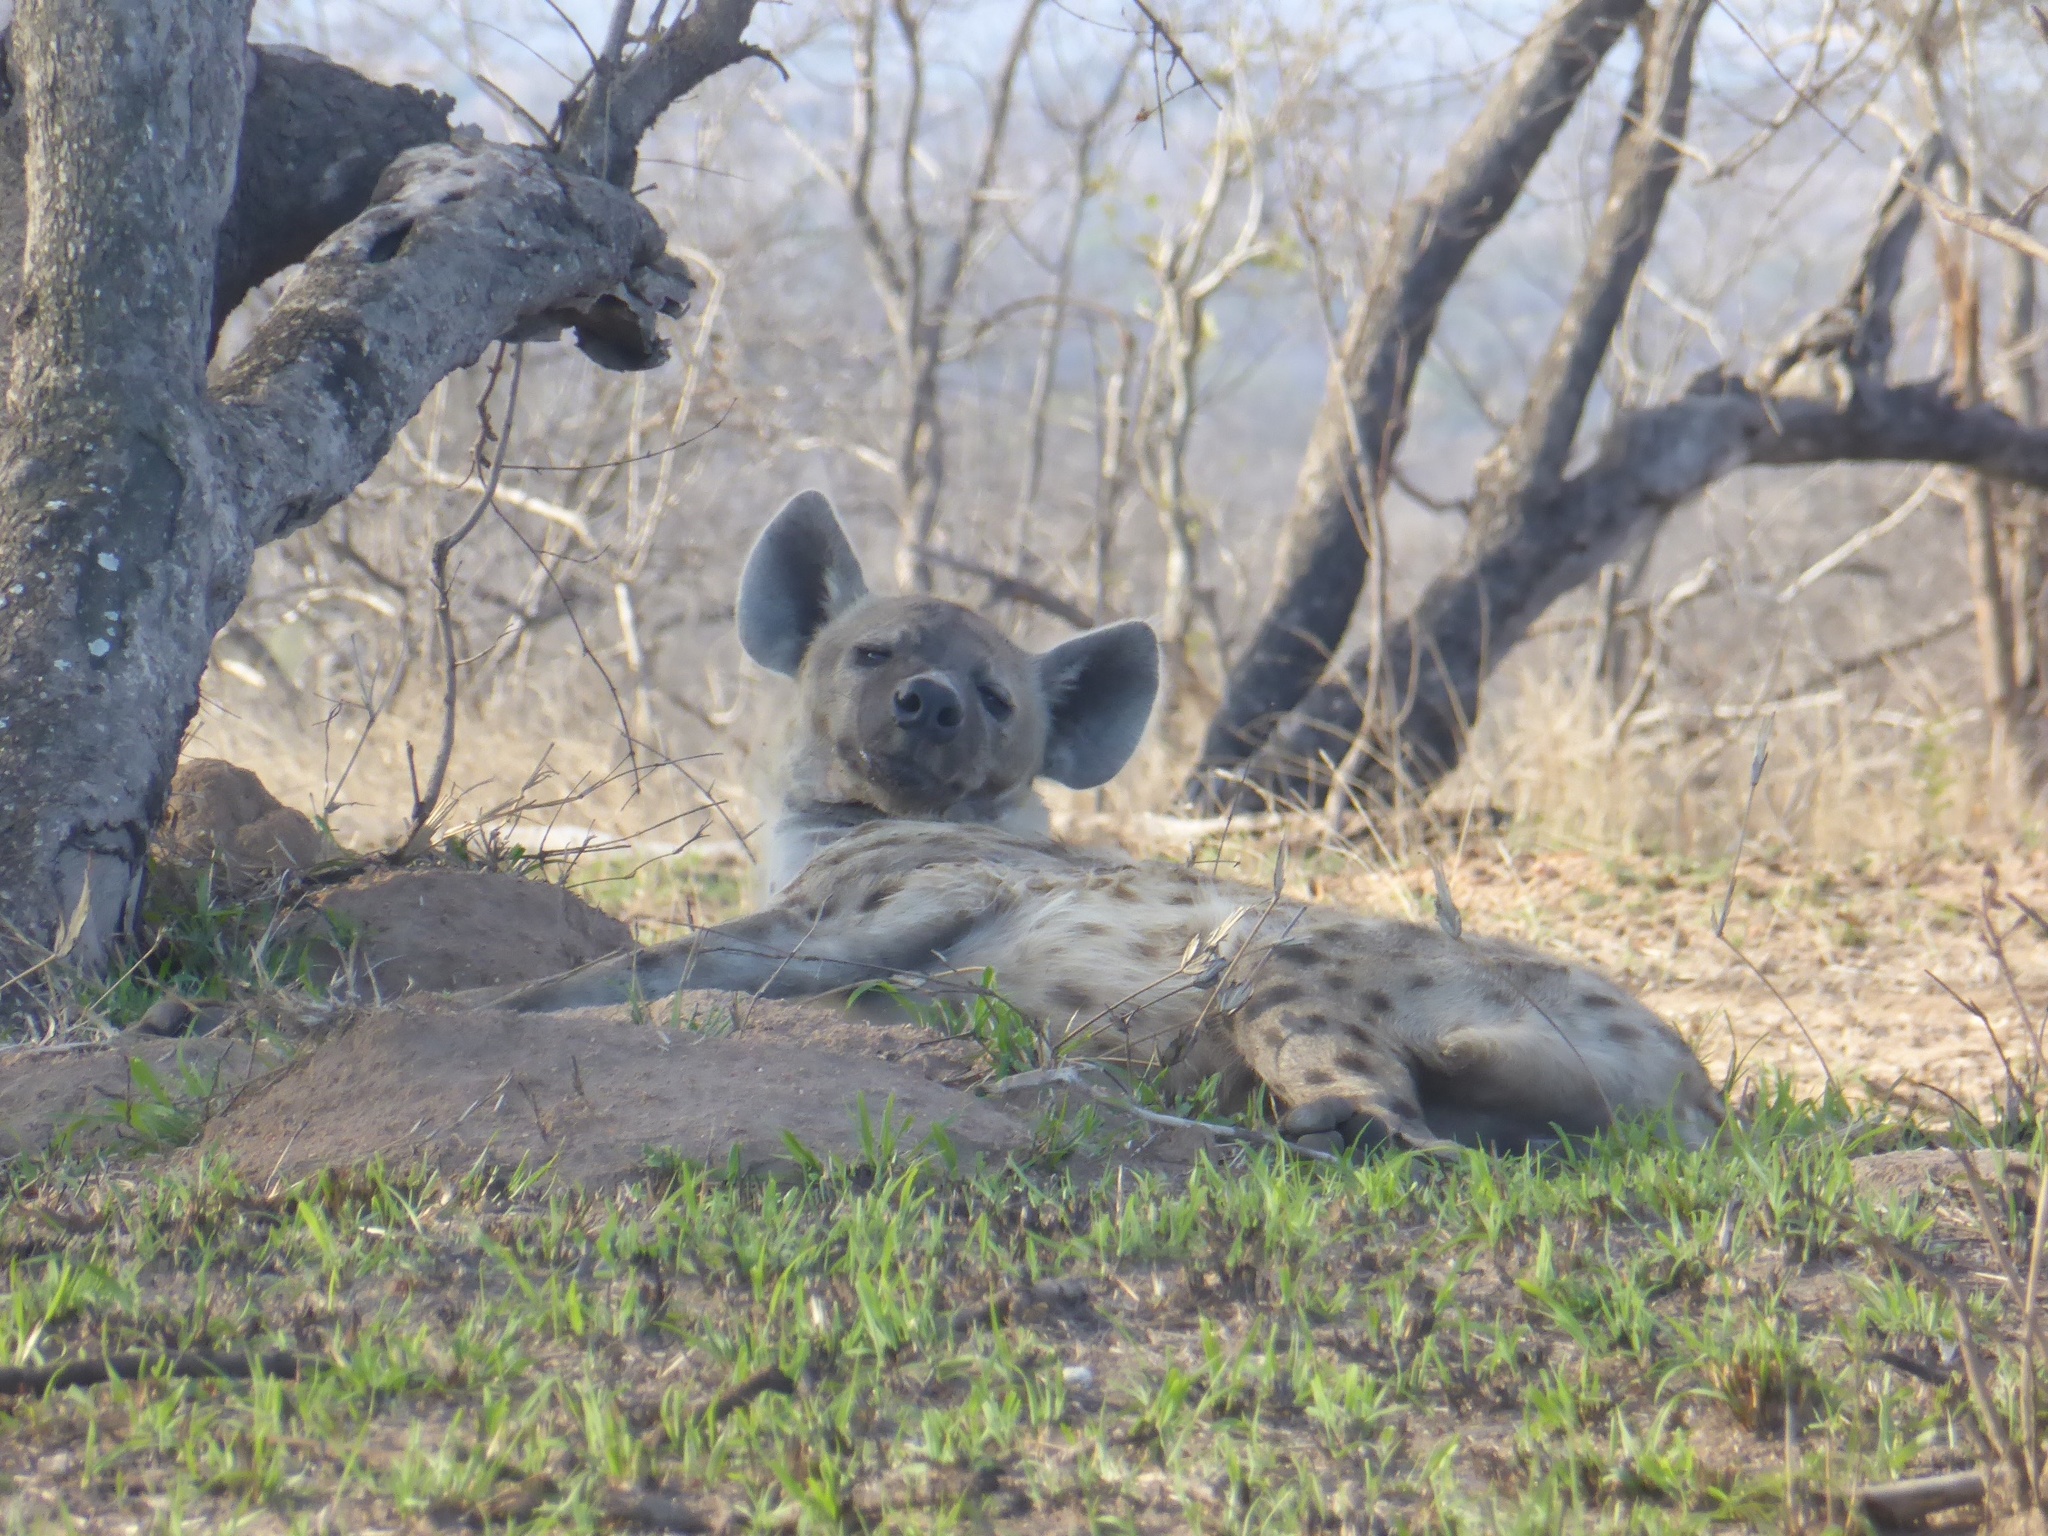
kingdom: Animalia
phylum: Chordata
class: Mammalia
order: Carnivora
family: Hyaenidae
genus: Crocuta
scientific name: Crocuta crocuta
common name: Spotted hyaena
